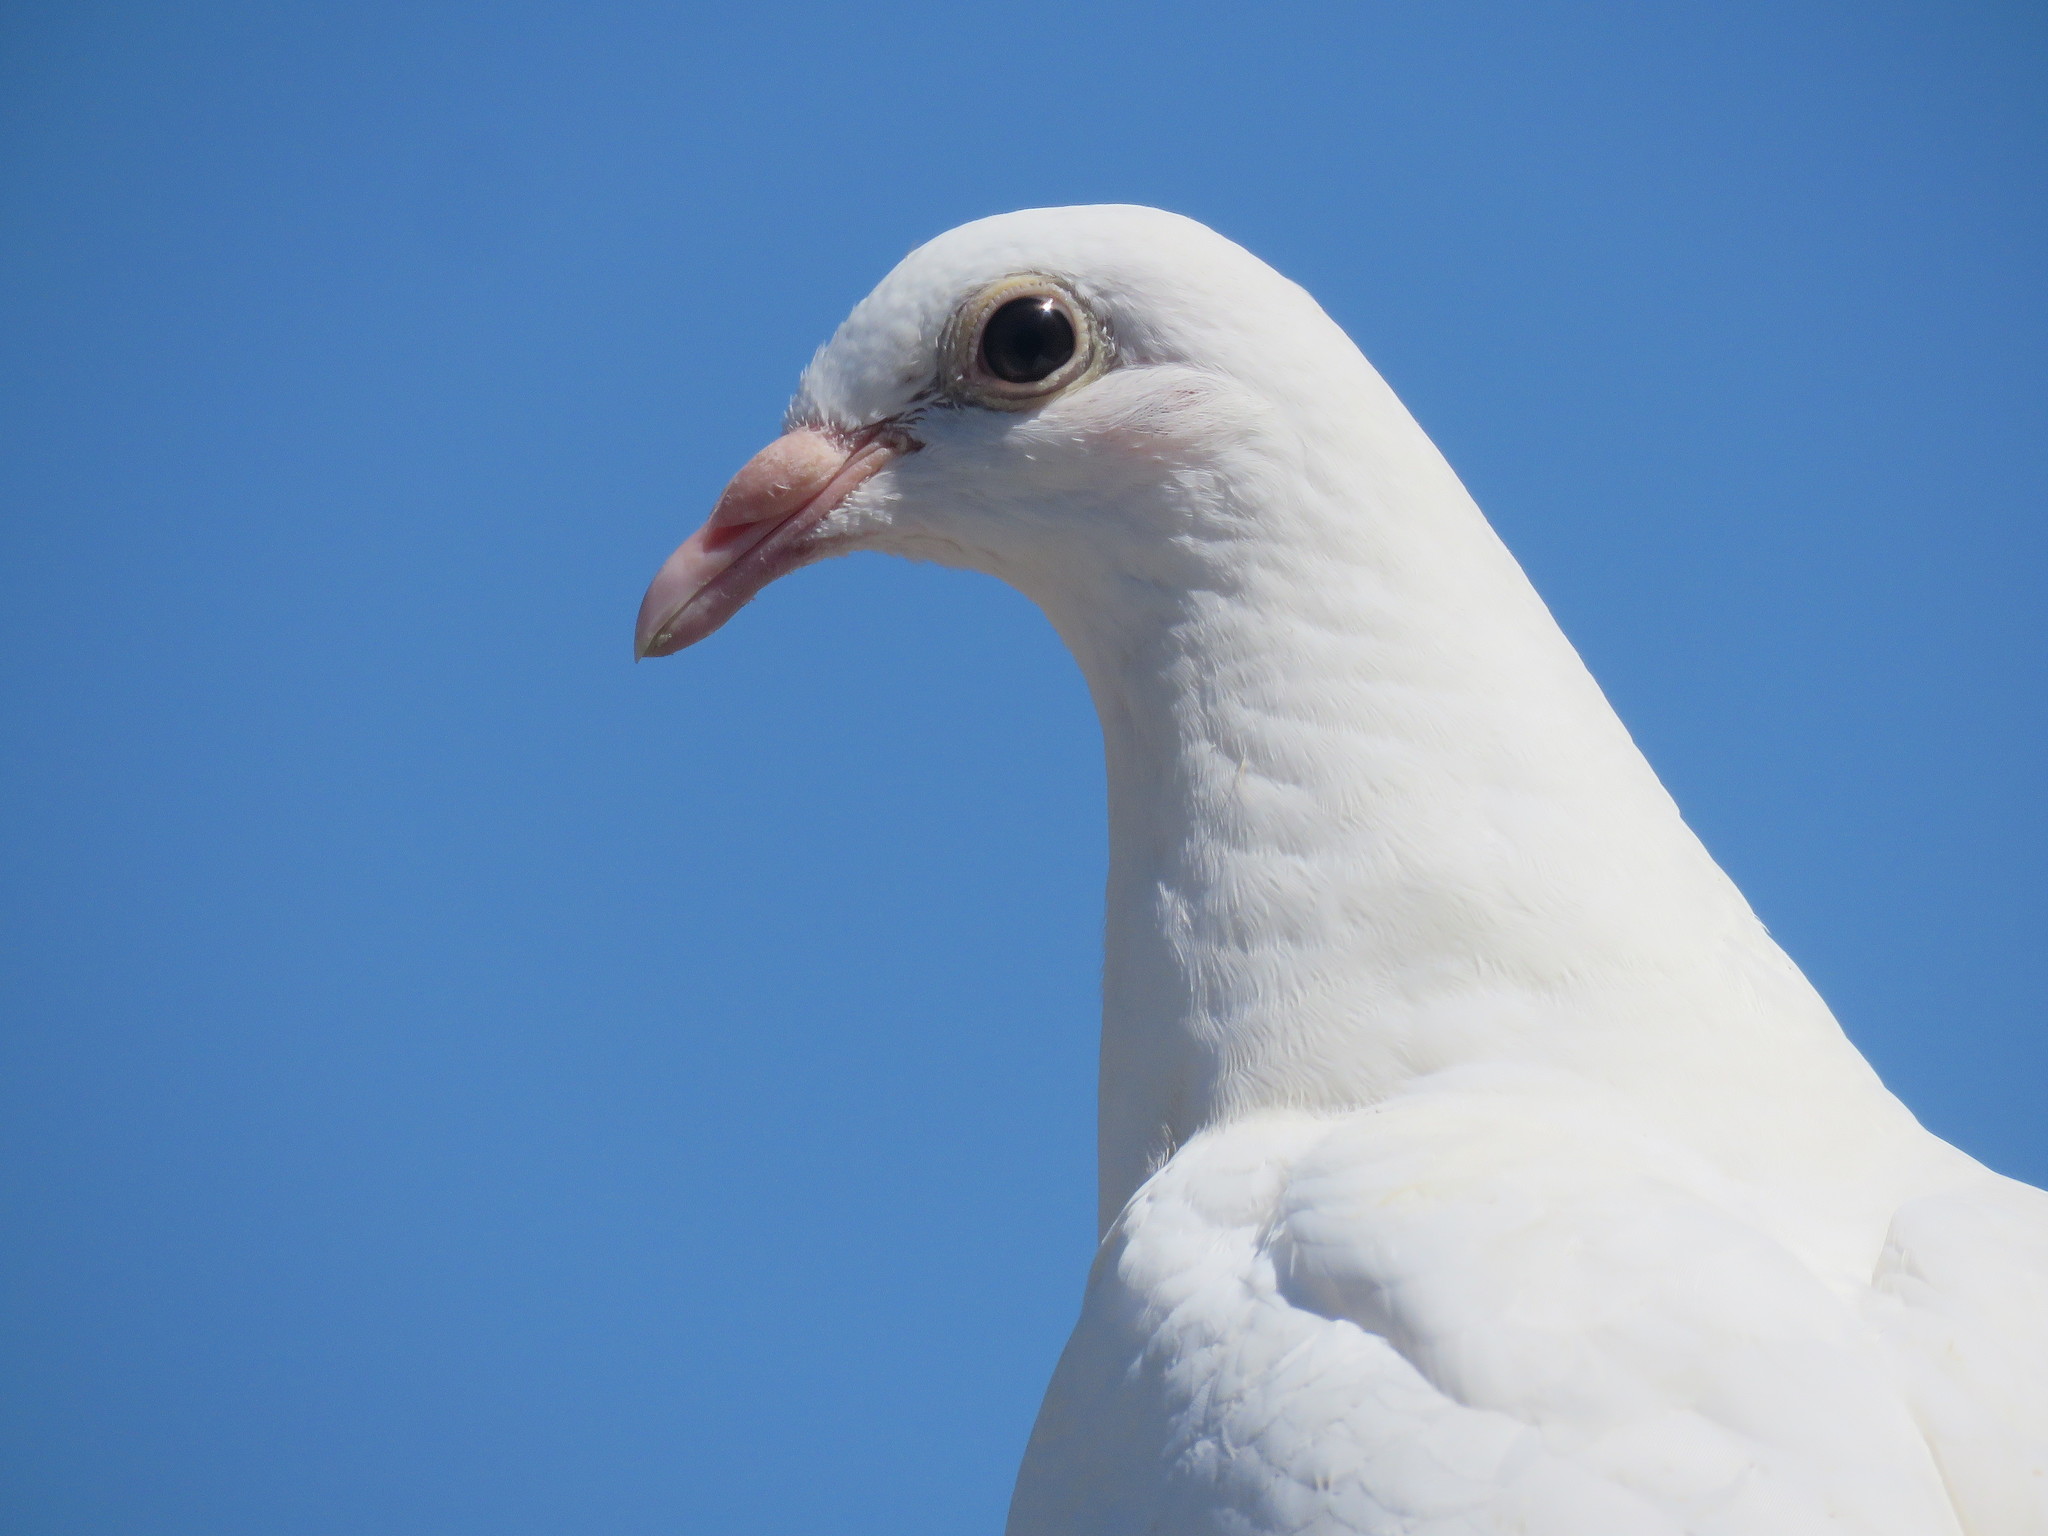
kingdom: Animalia
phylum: Chordata
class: Aves
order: Columbiformes
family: Columbidae
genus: Columba
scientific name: Columba livia
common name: Rock pigeon
